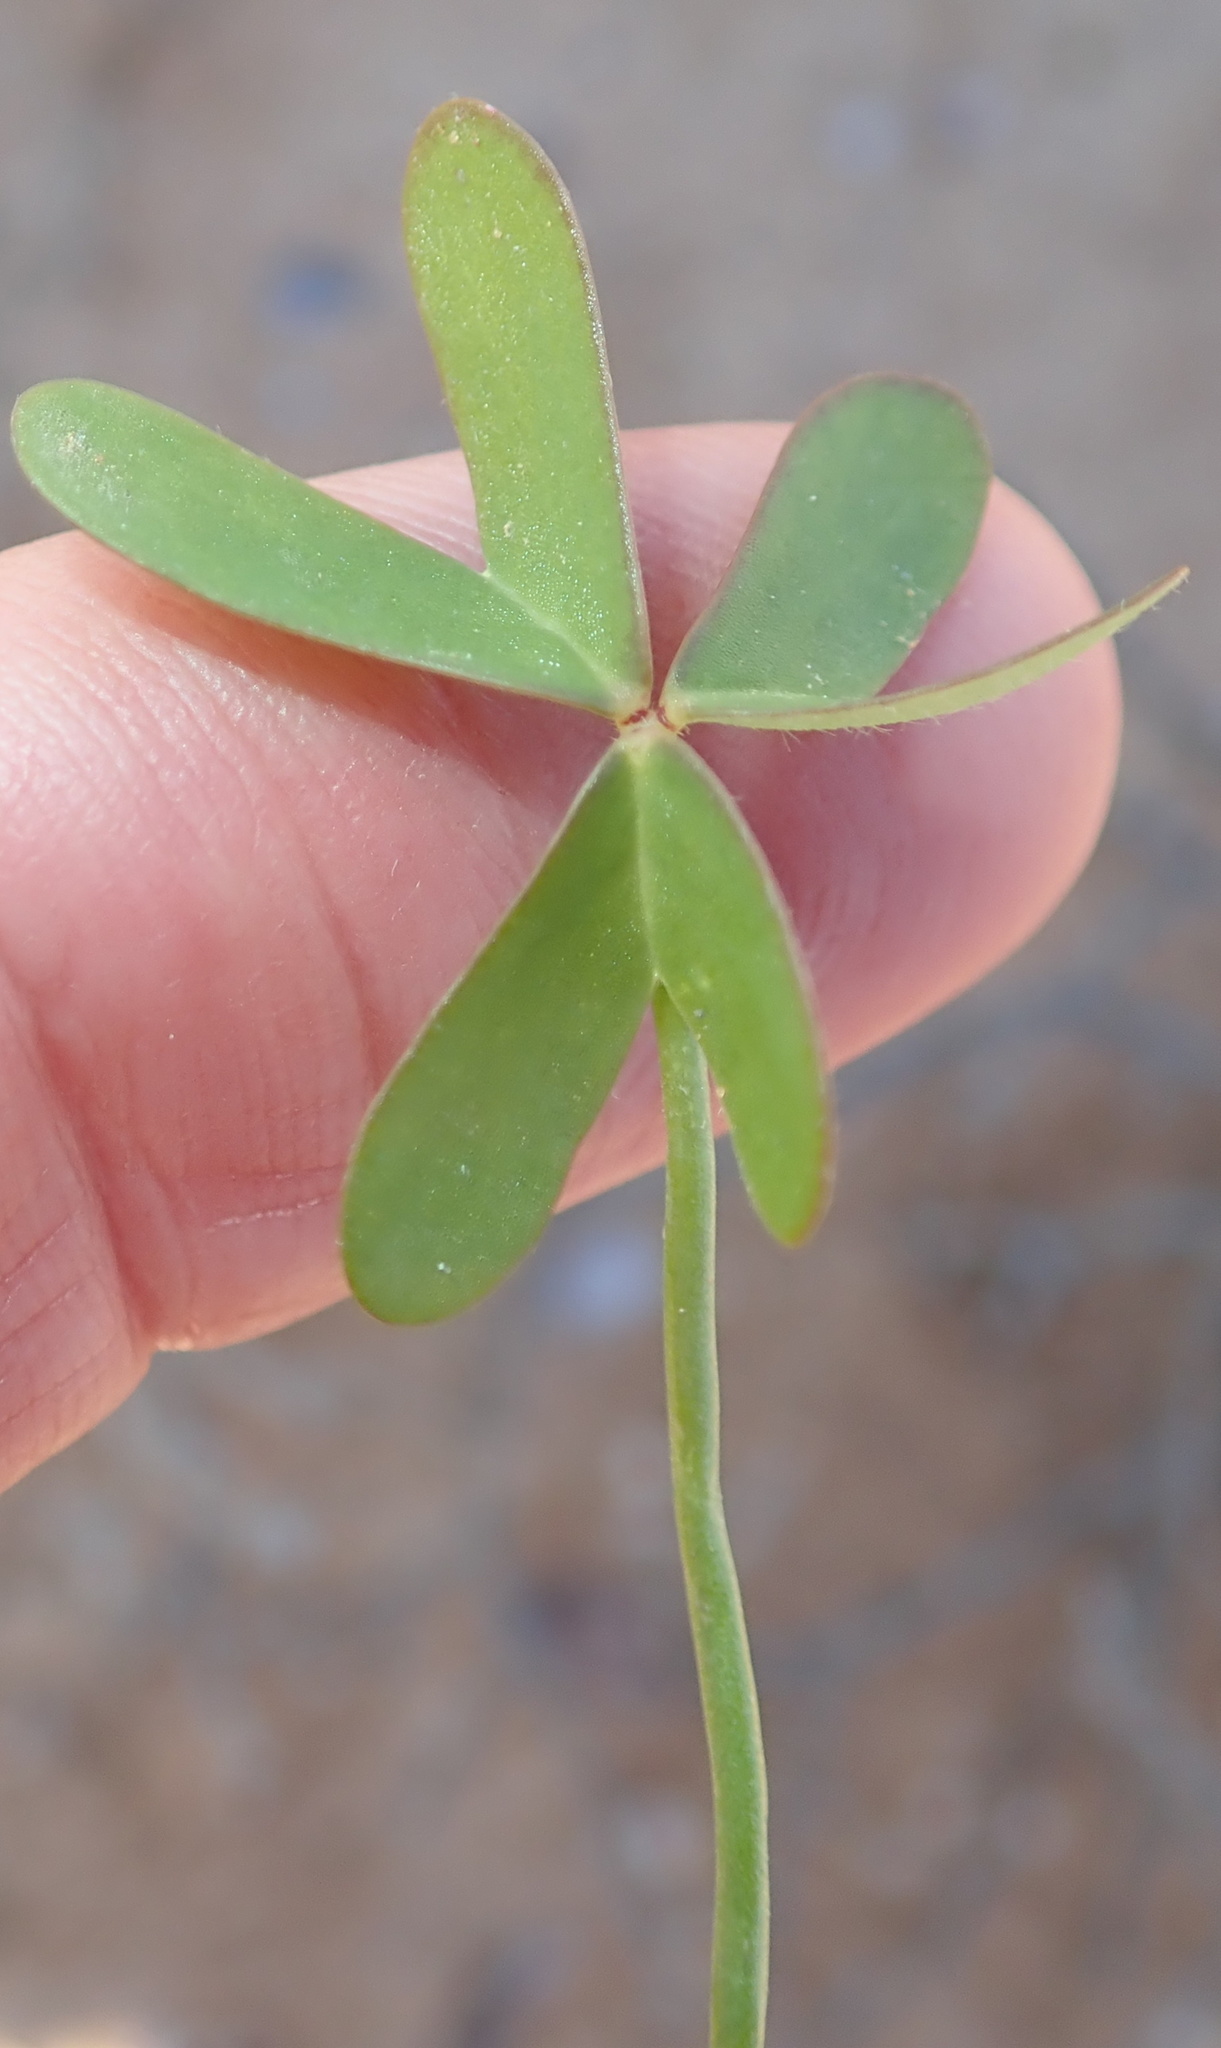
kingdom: Plantae
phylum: Tracheophyta
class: Magnoliopsida
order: Oxalidales
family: Oxalidaceae
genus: Oxalis
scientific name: Oxalis pes-caprae
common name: Bermuda-buttercup
